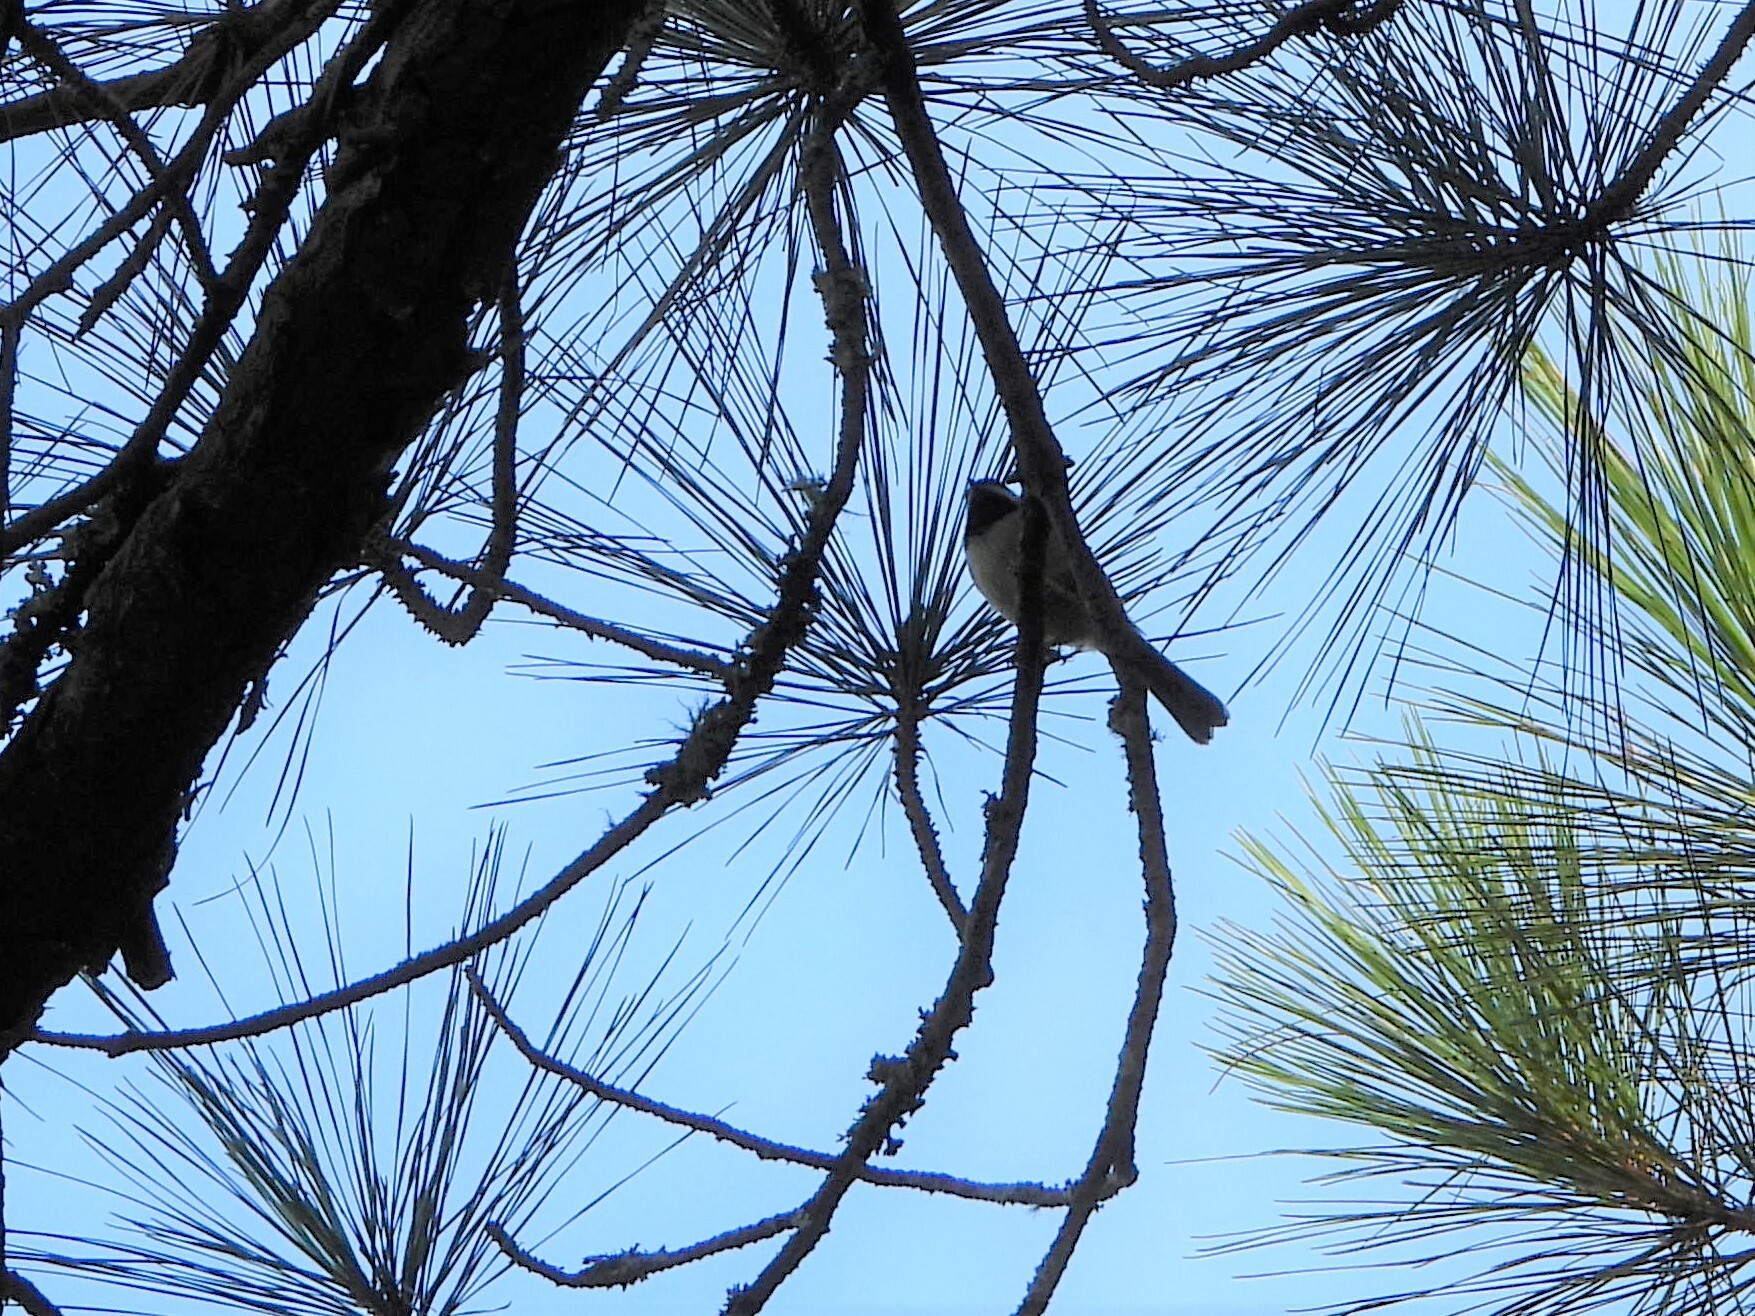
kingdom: Animalia
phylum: Chordata
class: Aves
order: Passeriformes
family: Paridae
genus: Poecile
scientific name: Poecile carolinensis
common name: Carolina chickadee
